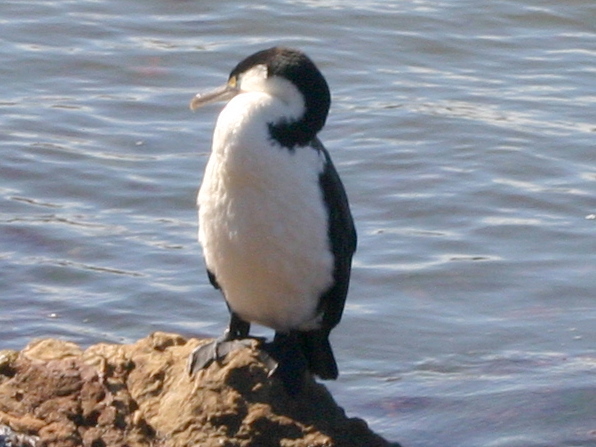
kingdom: Animalia
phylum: Chordata
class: Aves
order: Suliformes
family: Phalacrocoracidae
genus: Phalacrocorax
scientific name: Phalacrocorax varius
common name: Pied cormorant
